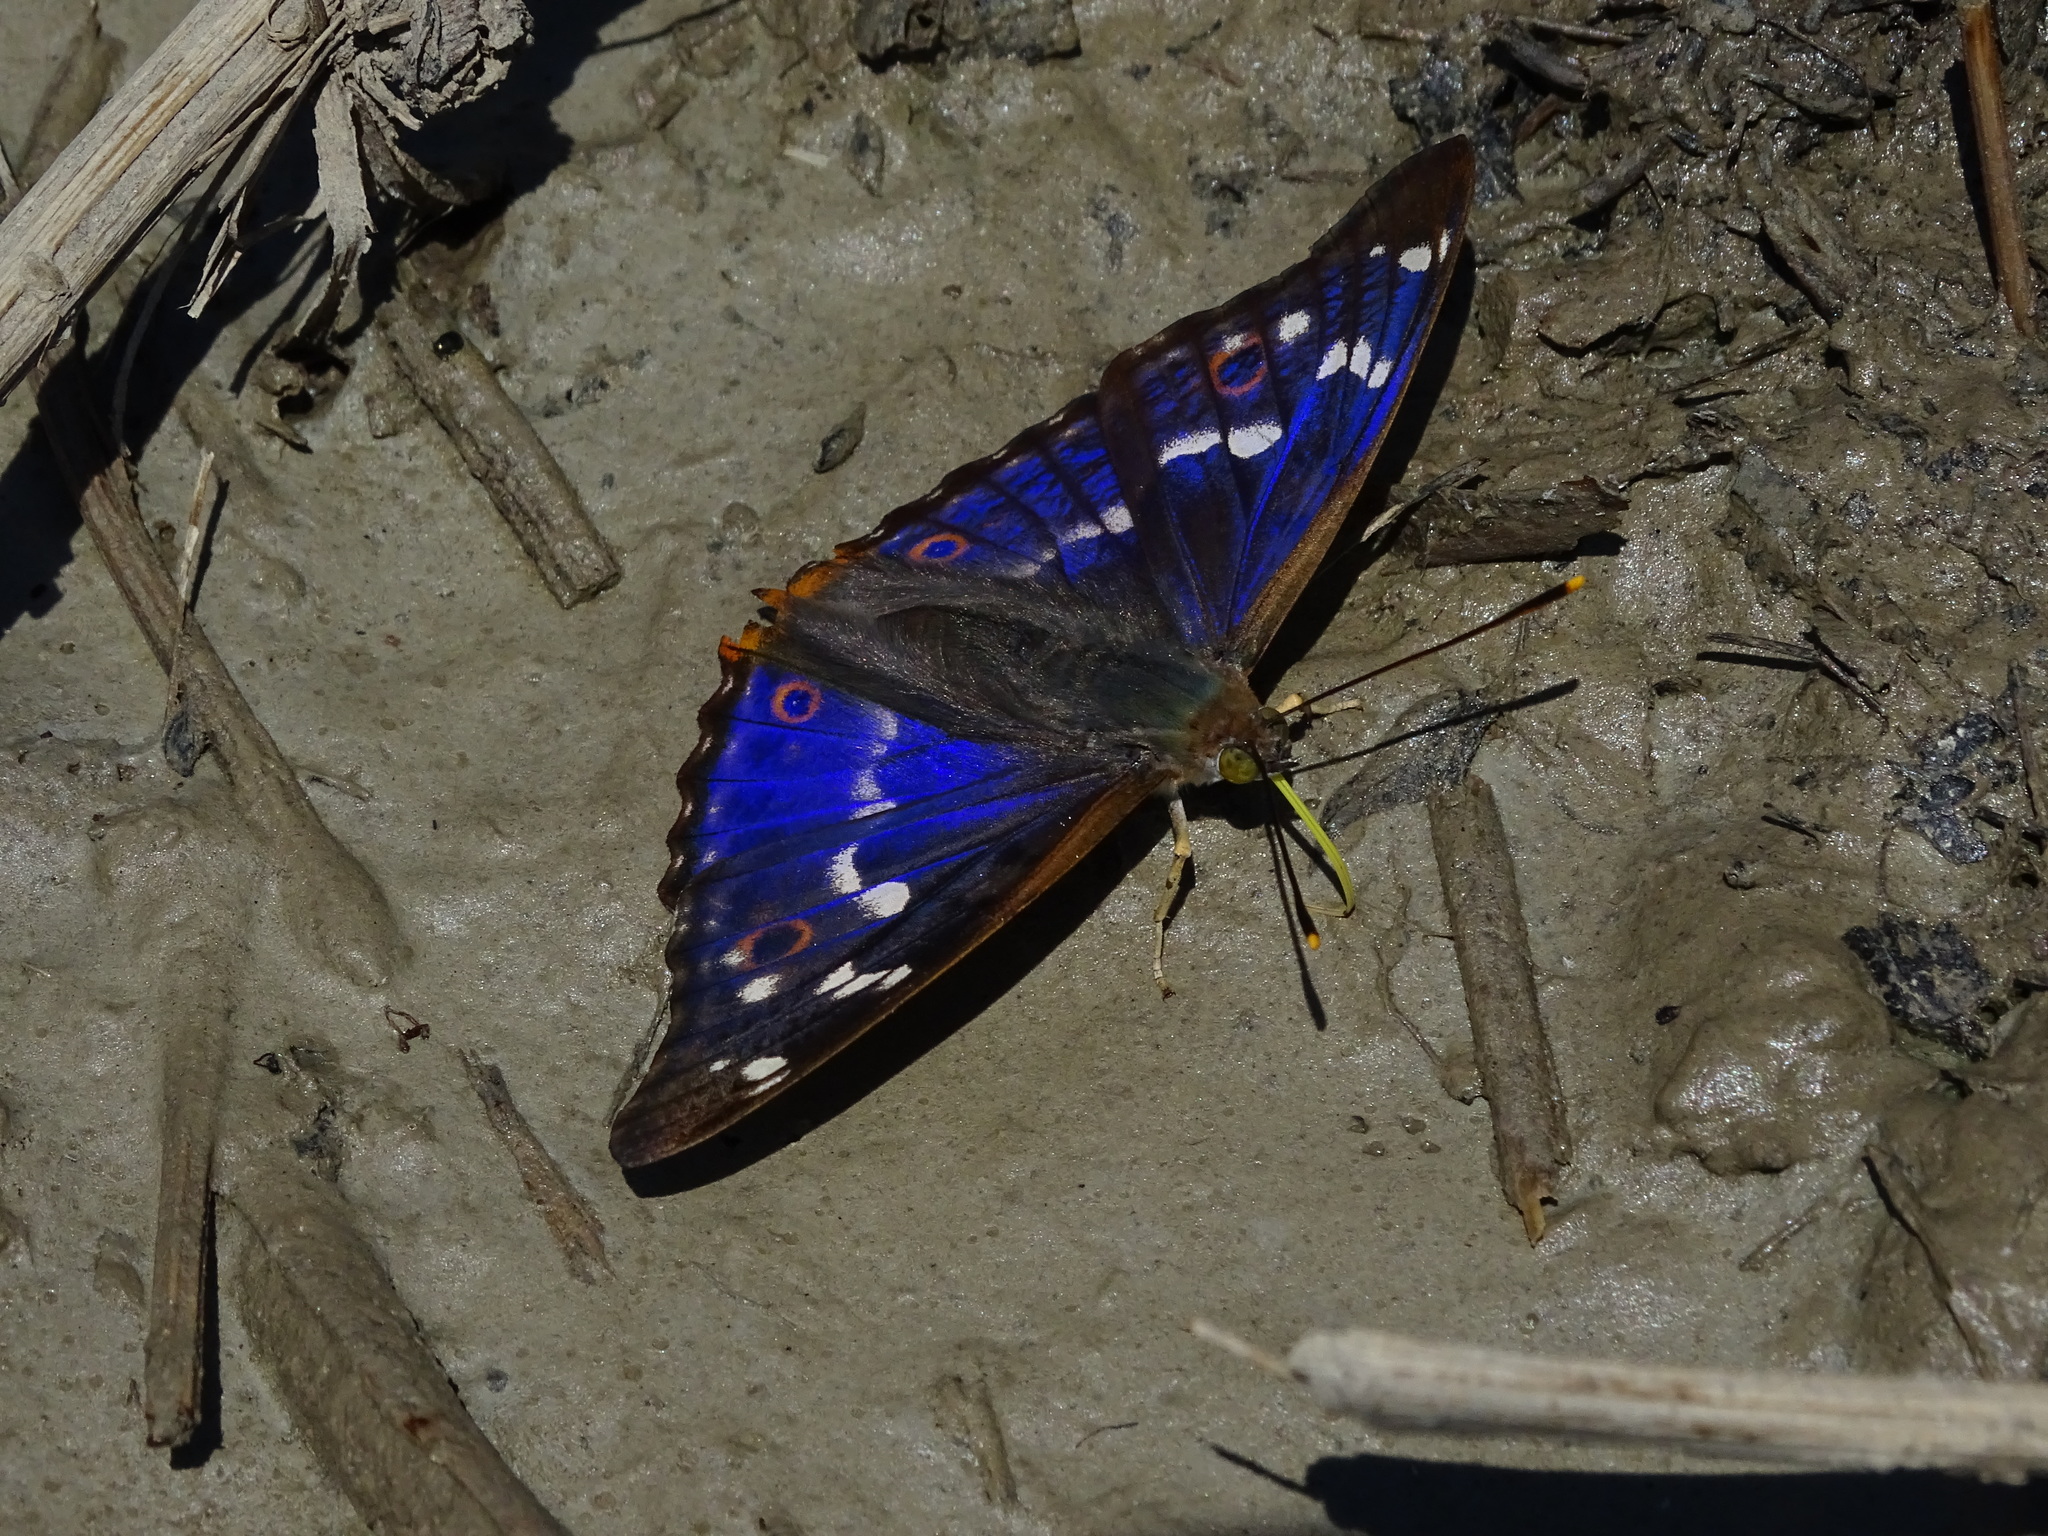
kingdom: Animalia
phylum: Arthropoda
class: Insecta
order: Lepidoptera
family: Nymphalidae
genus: Apatura
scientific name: Apatura ilia
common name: Lesser purple emperor
